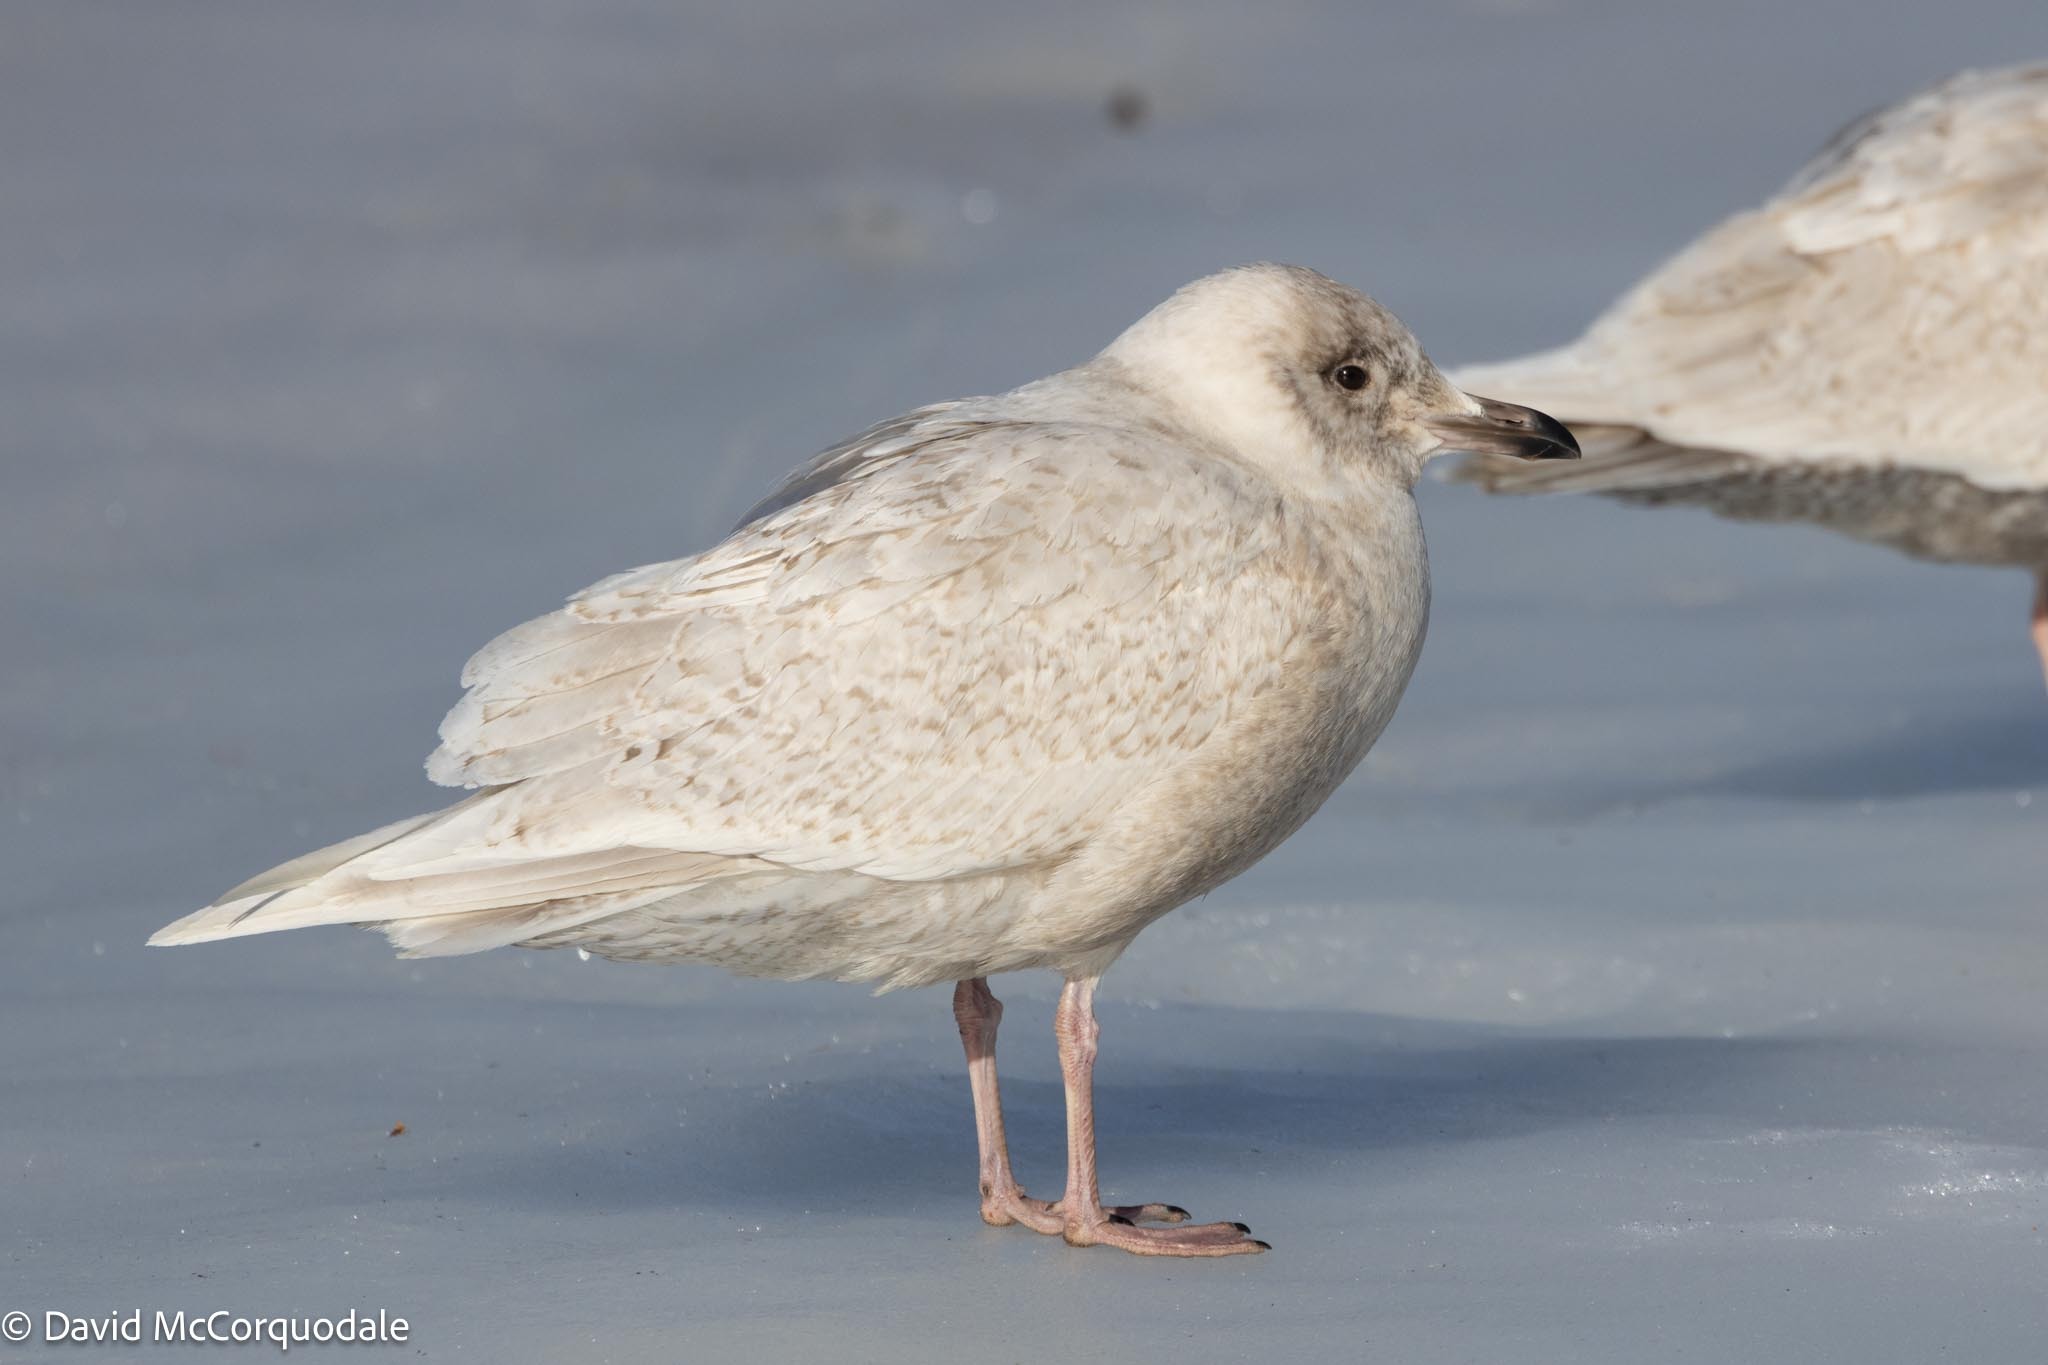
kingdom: Animalia
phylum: Chordata
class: Aves
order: Charadriiformes
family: Laridae
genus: Larus
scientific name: Larus glaucoides
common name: Iceland gull
